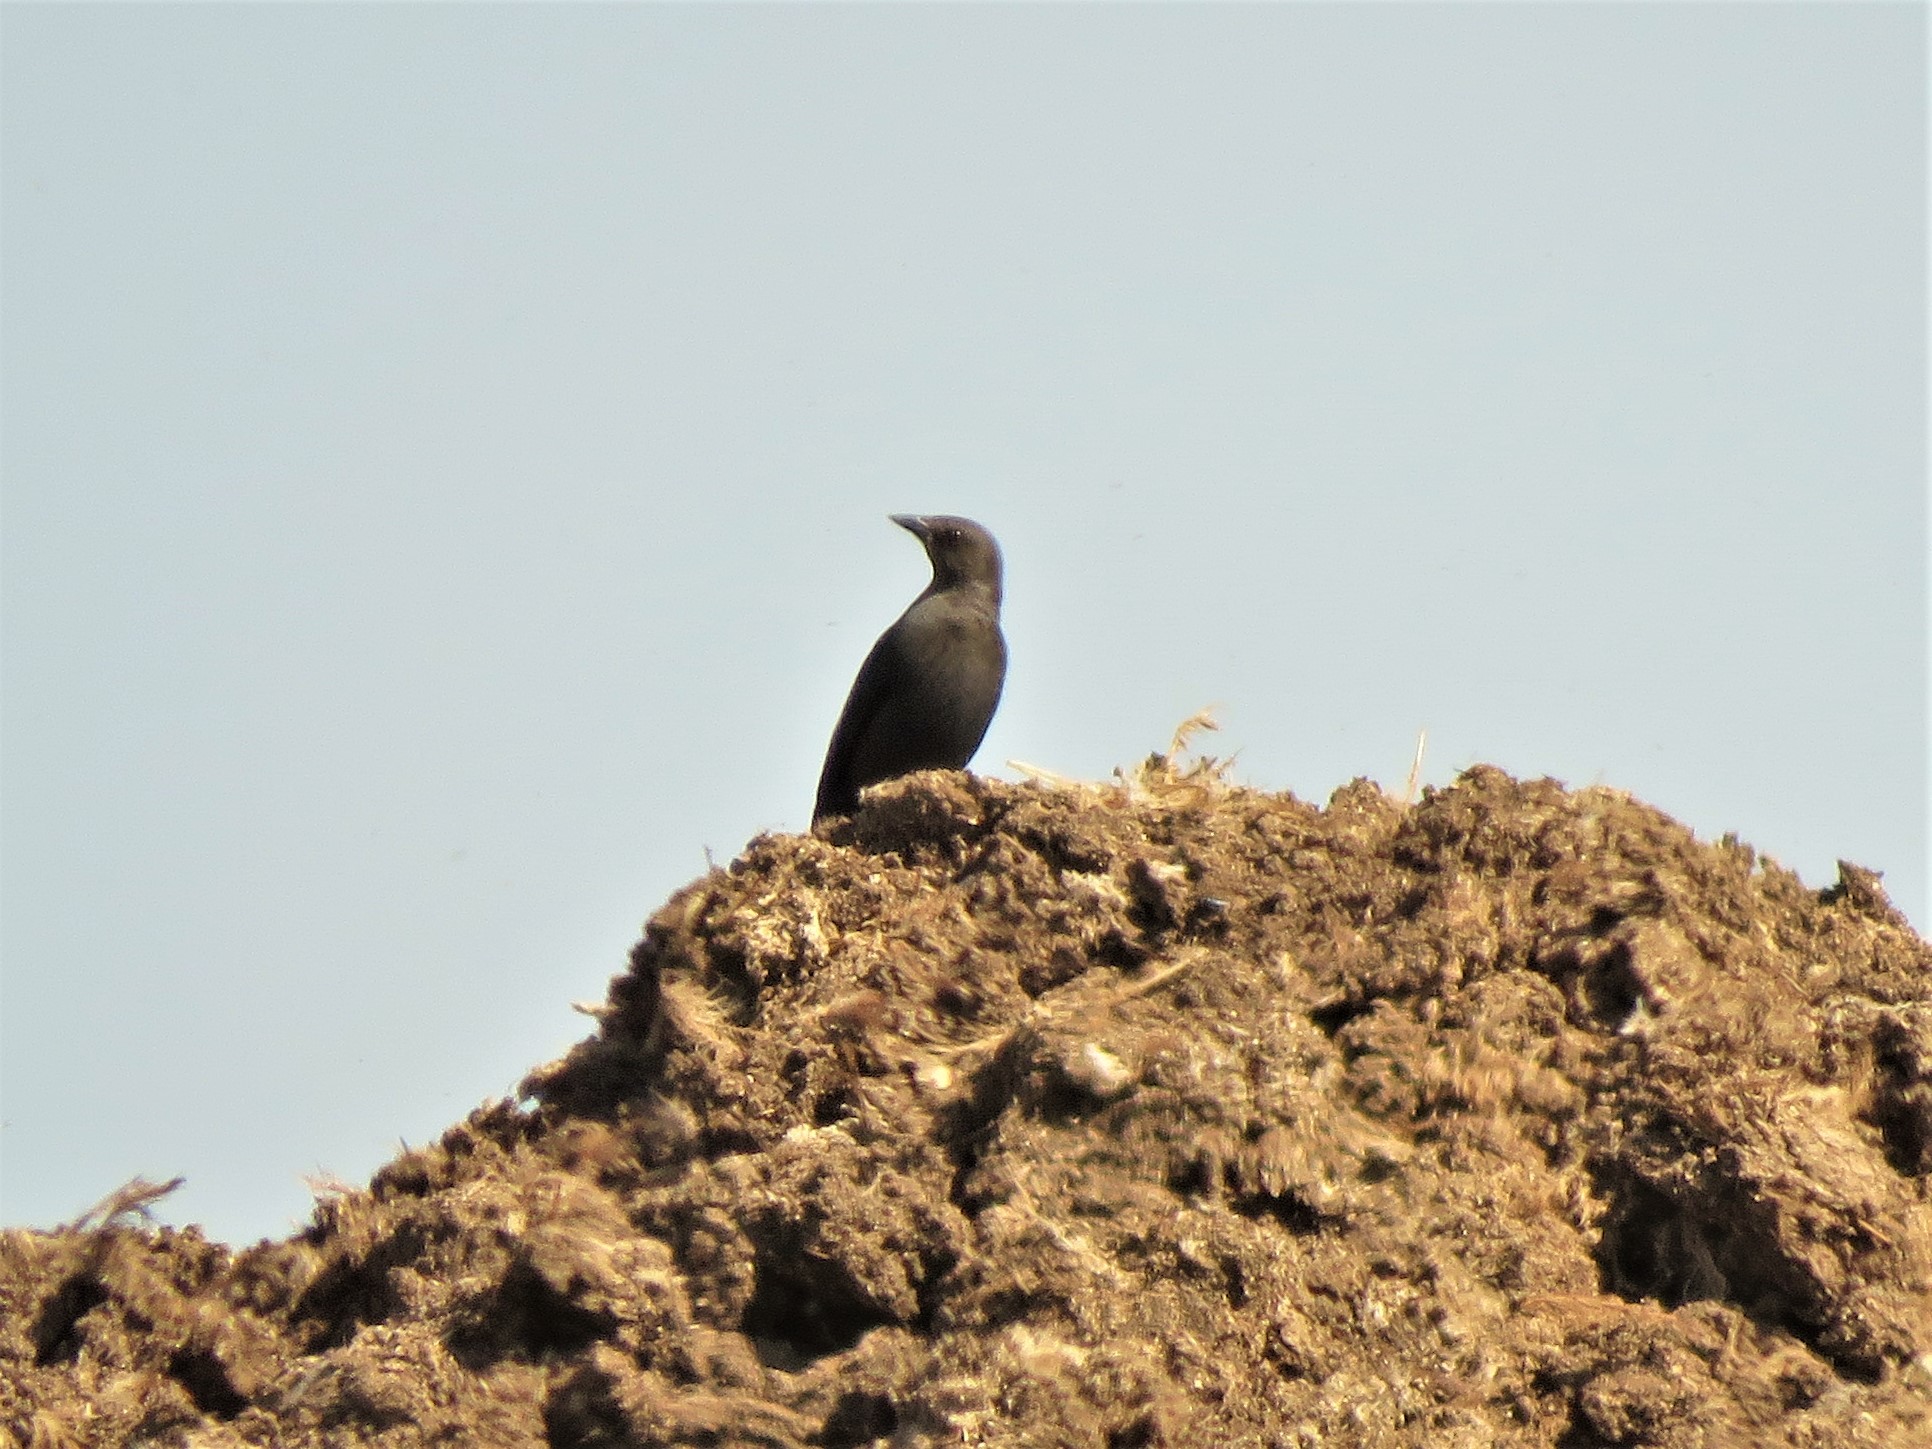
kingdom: Animalia
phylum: Chordata
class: Aves
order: Passeriformes
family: Icteridae
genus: Euphagus
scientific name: Euphagus cyanocephalus
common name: Brewer's blackbird
